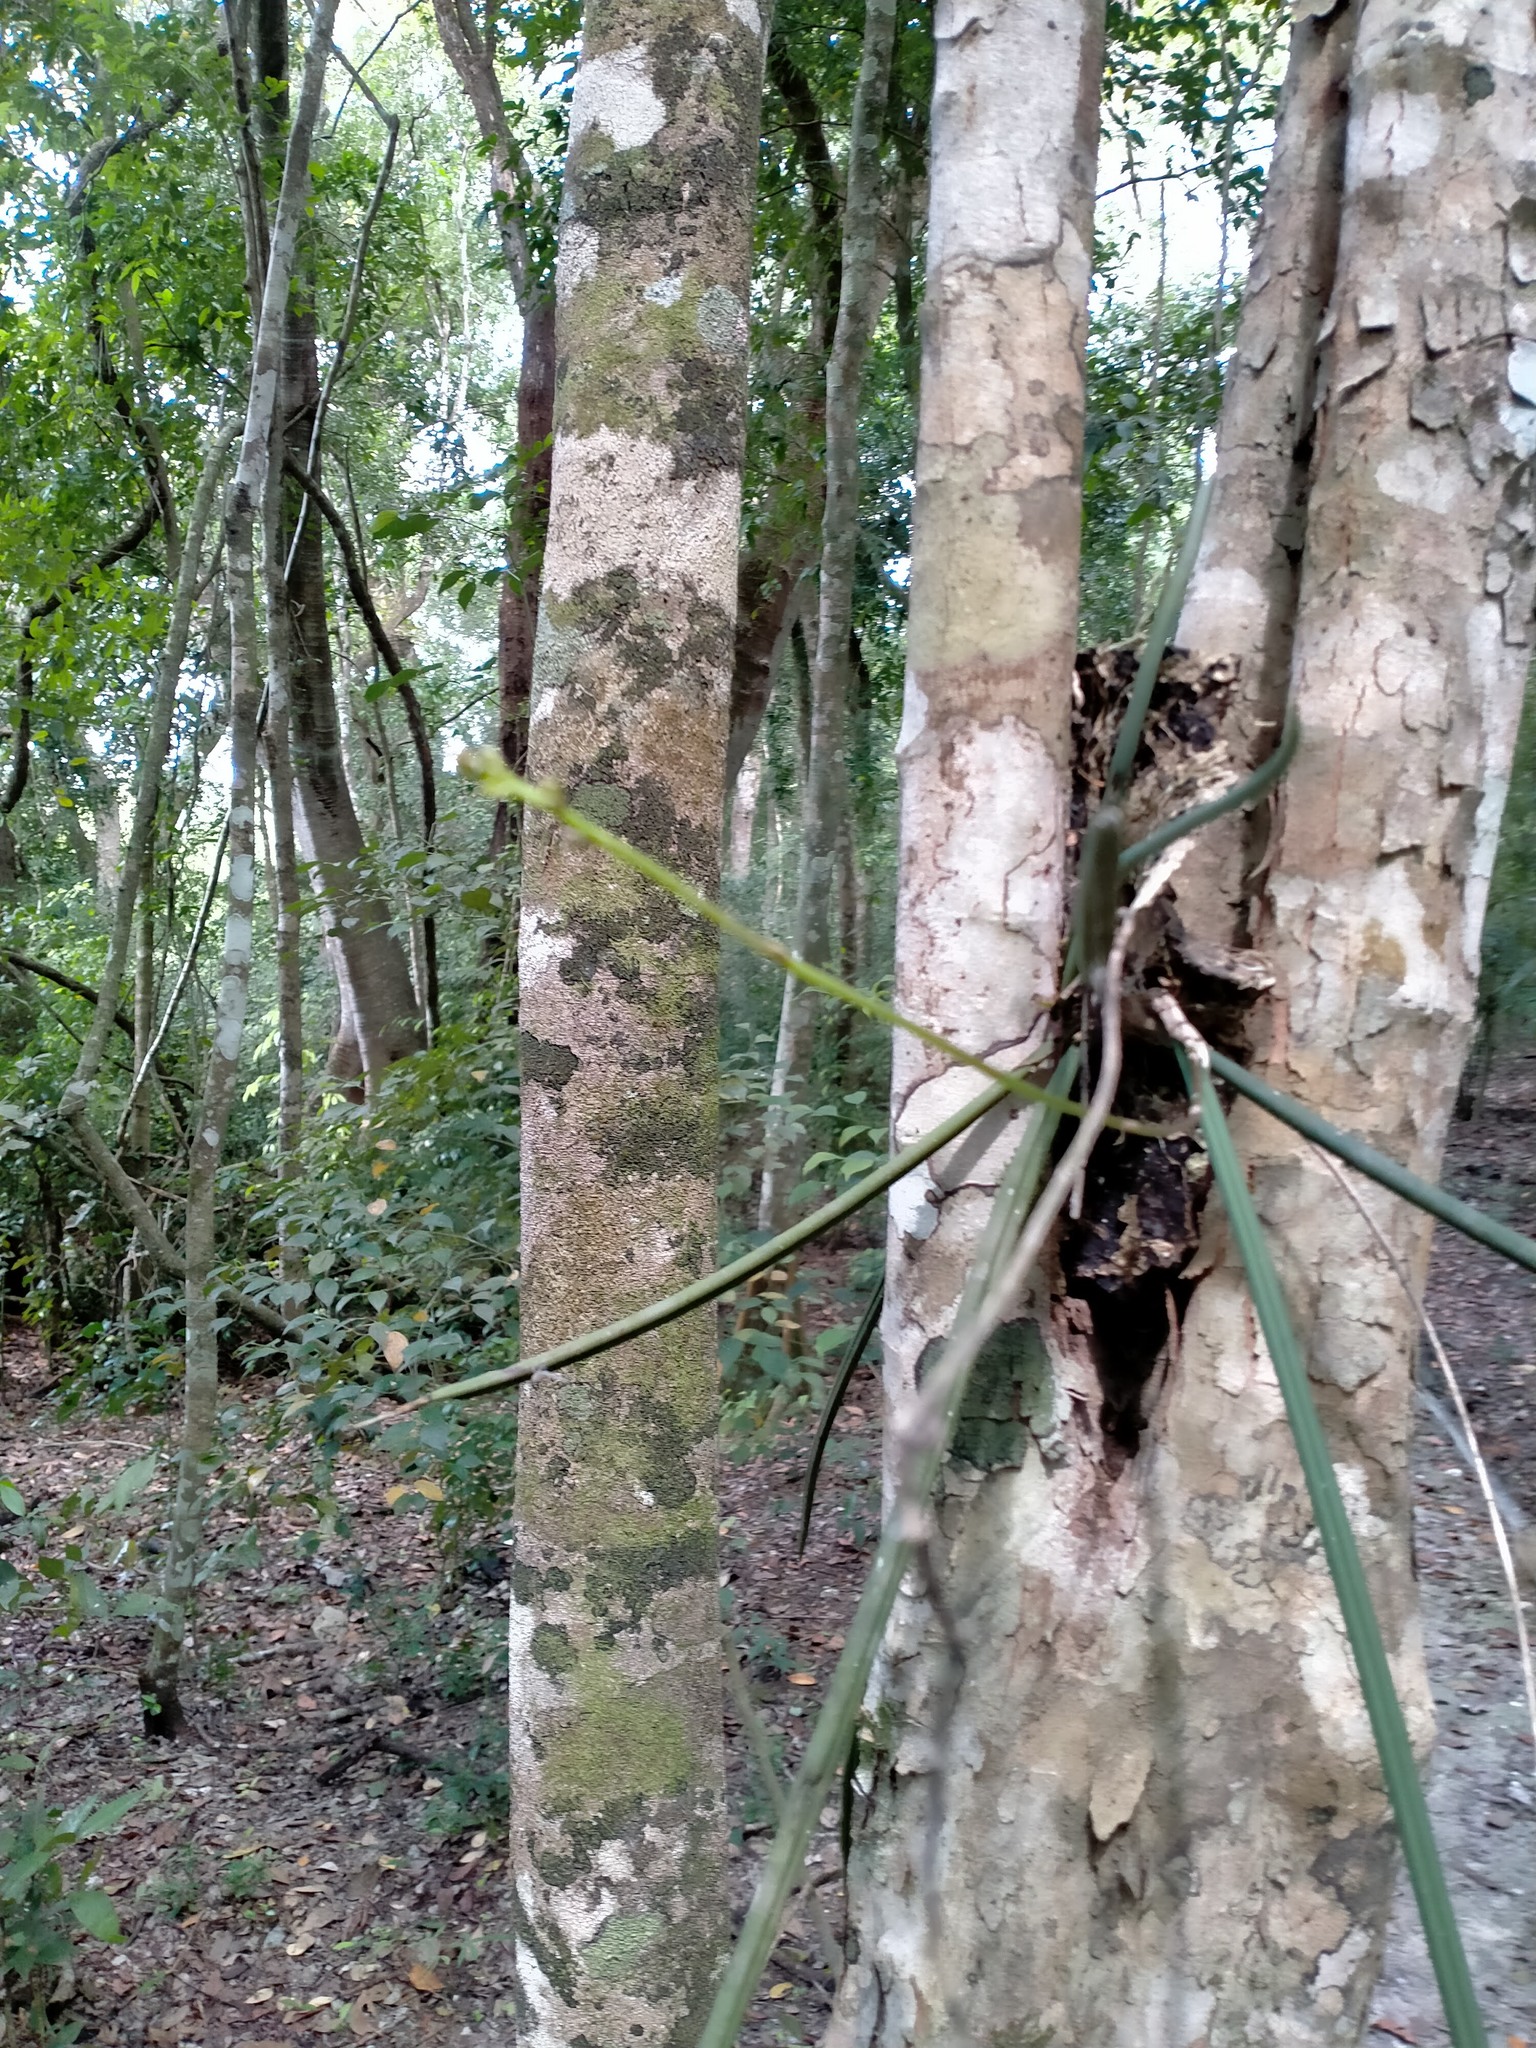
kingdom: Plantae
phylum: Tracheophyta
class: Liliopsida
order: Asparagales
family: Orchidaceae
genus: Trichocentrum
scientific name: Trichocentrum ascendens
